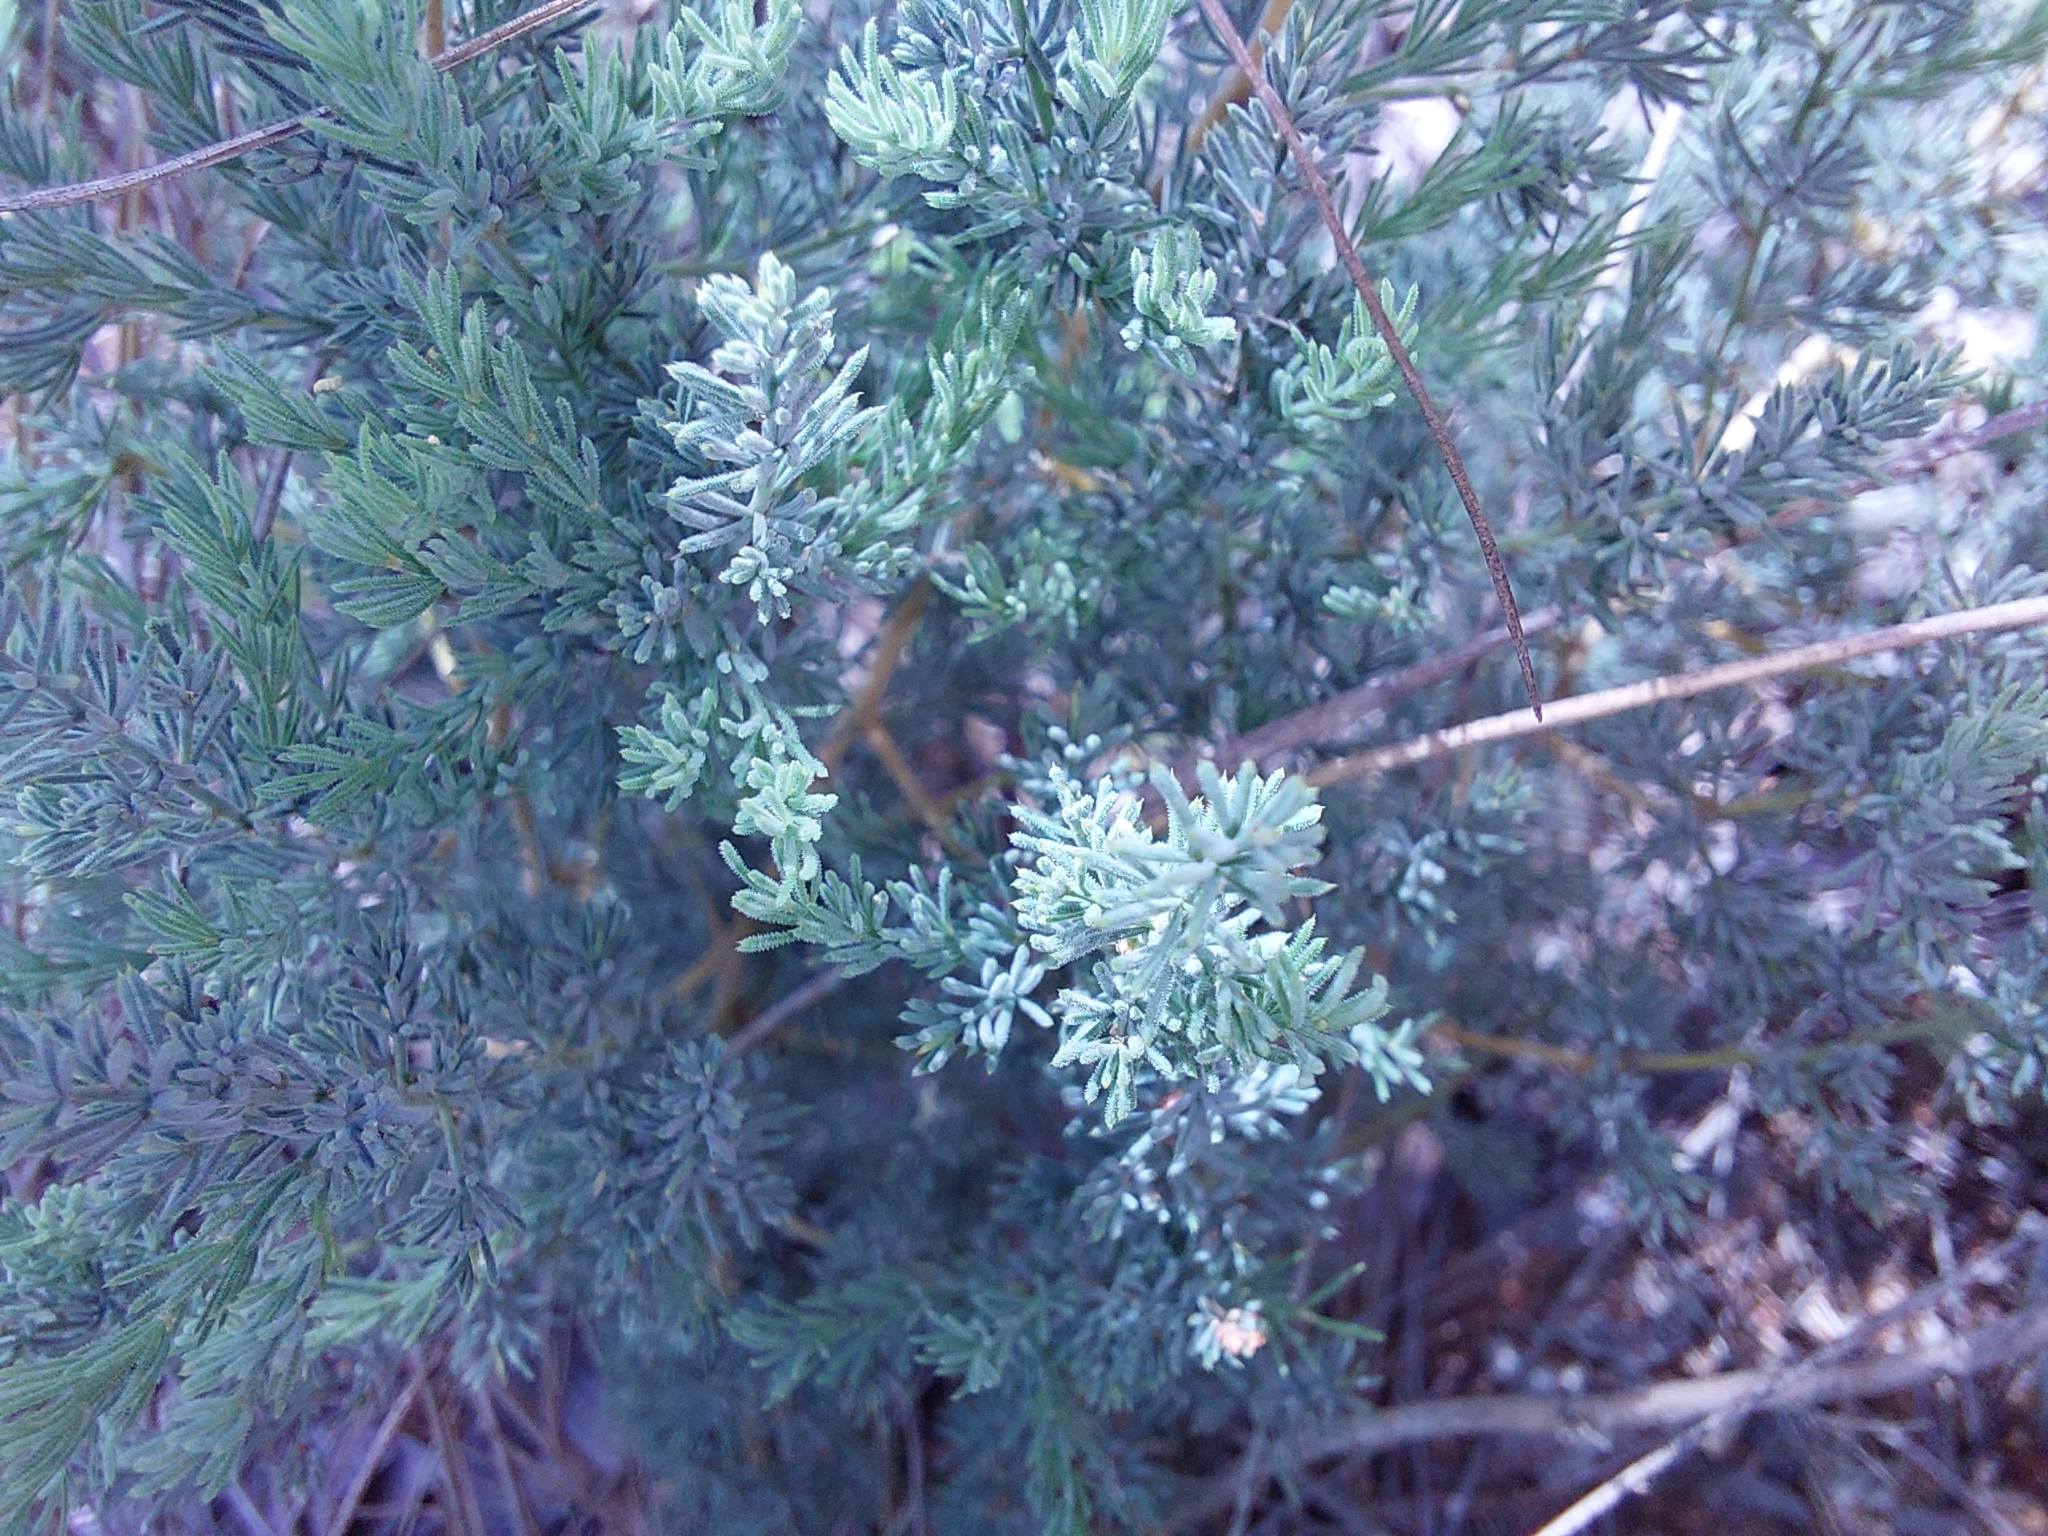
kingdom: Plantae
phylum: Tracheophyta
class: Liliopsida
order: Asparagales
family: Asparagaceae
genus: Asparagus
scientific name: Asparagus flavicaulis
